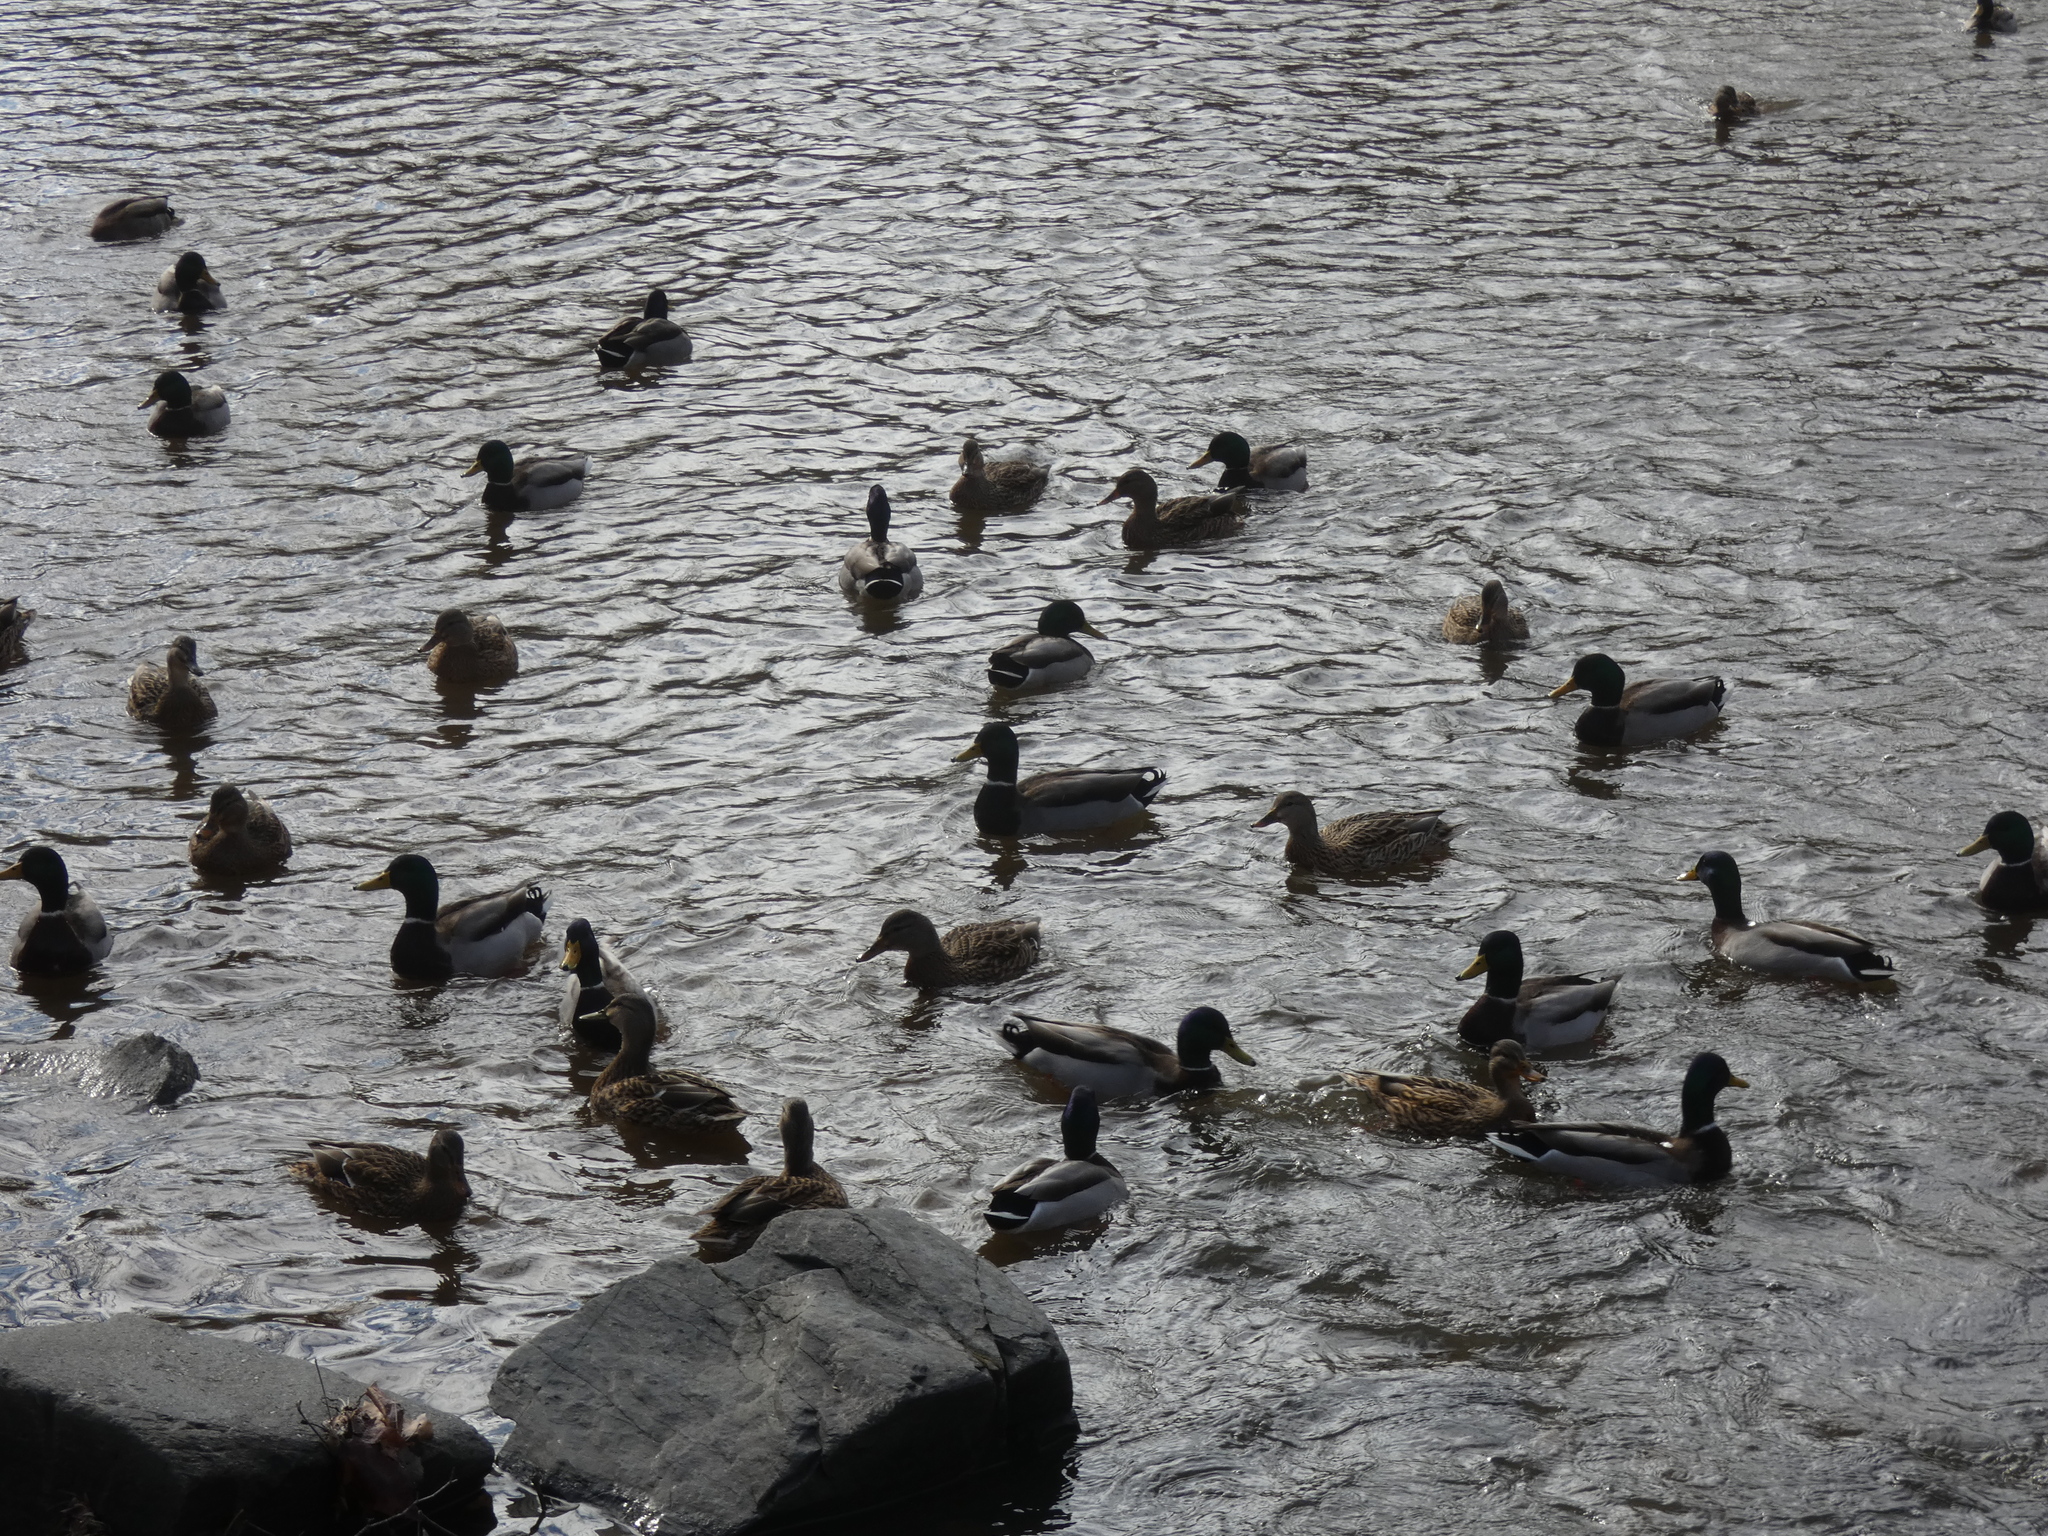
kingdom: Animalia
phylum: Chordata
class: Aves
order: Anseriformes
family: Anatidae
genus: Anas
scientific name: Anas platyrhynchos
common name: Mallard
